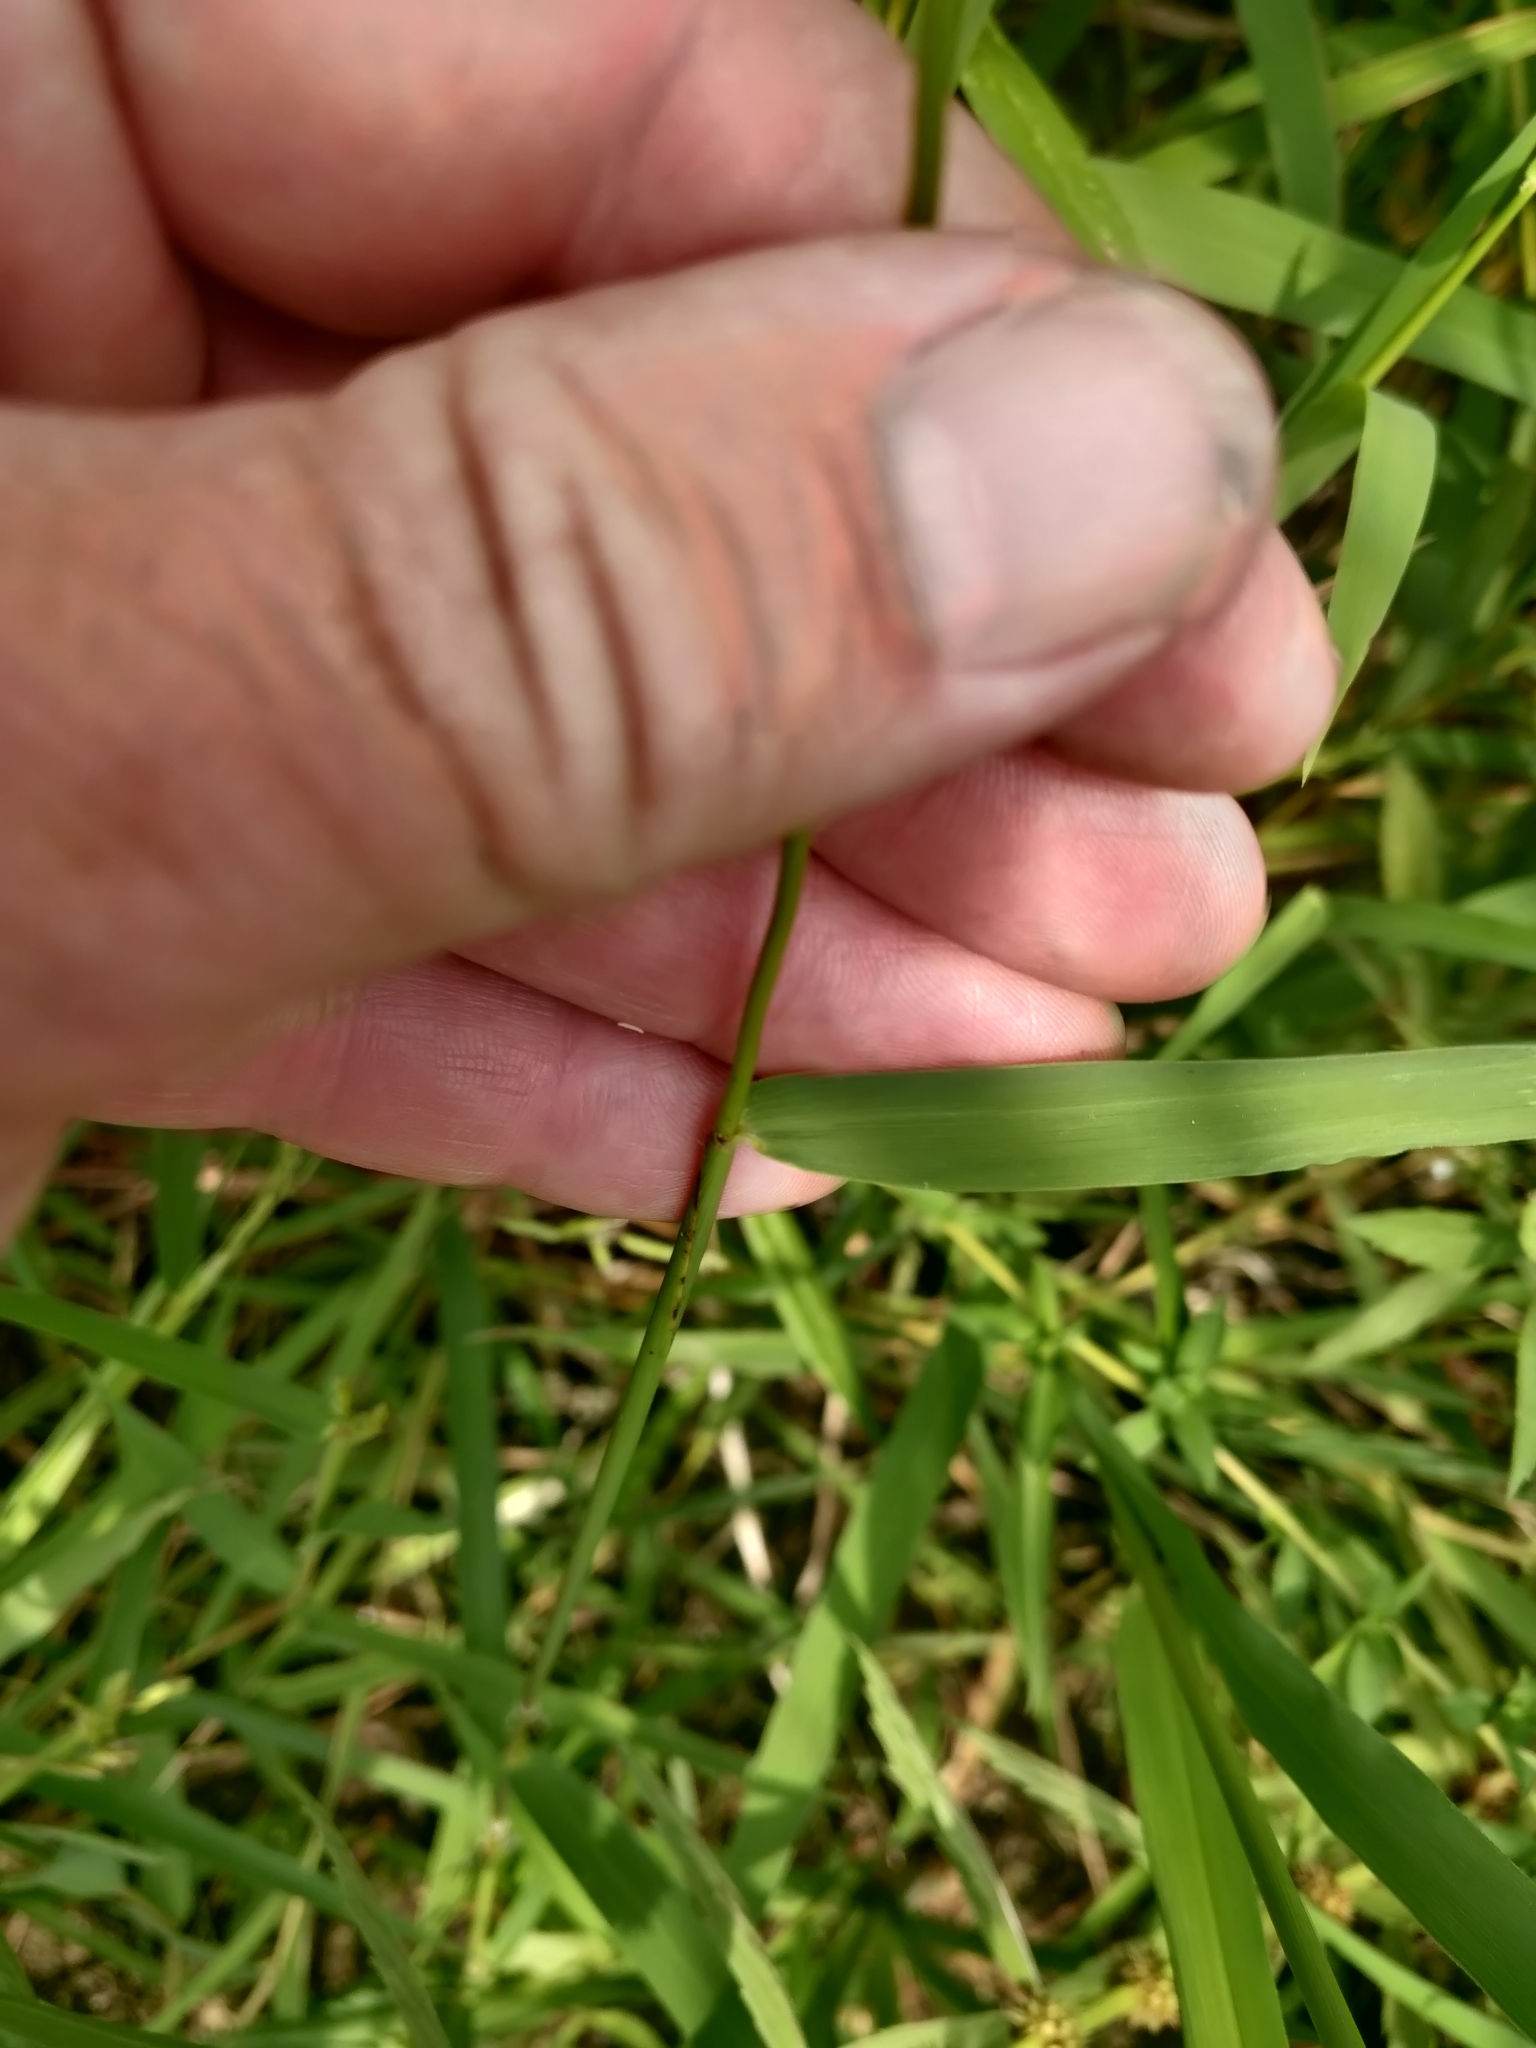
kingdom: Plantae
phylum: Tracheophyta
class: Liliopsida
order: Poales
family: Poaceae
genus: Leersia
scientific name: Leersia oryzoides
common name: Cut-grass
